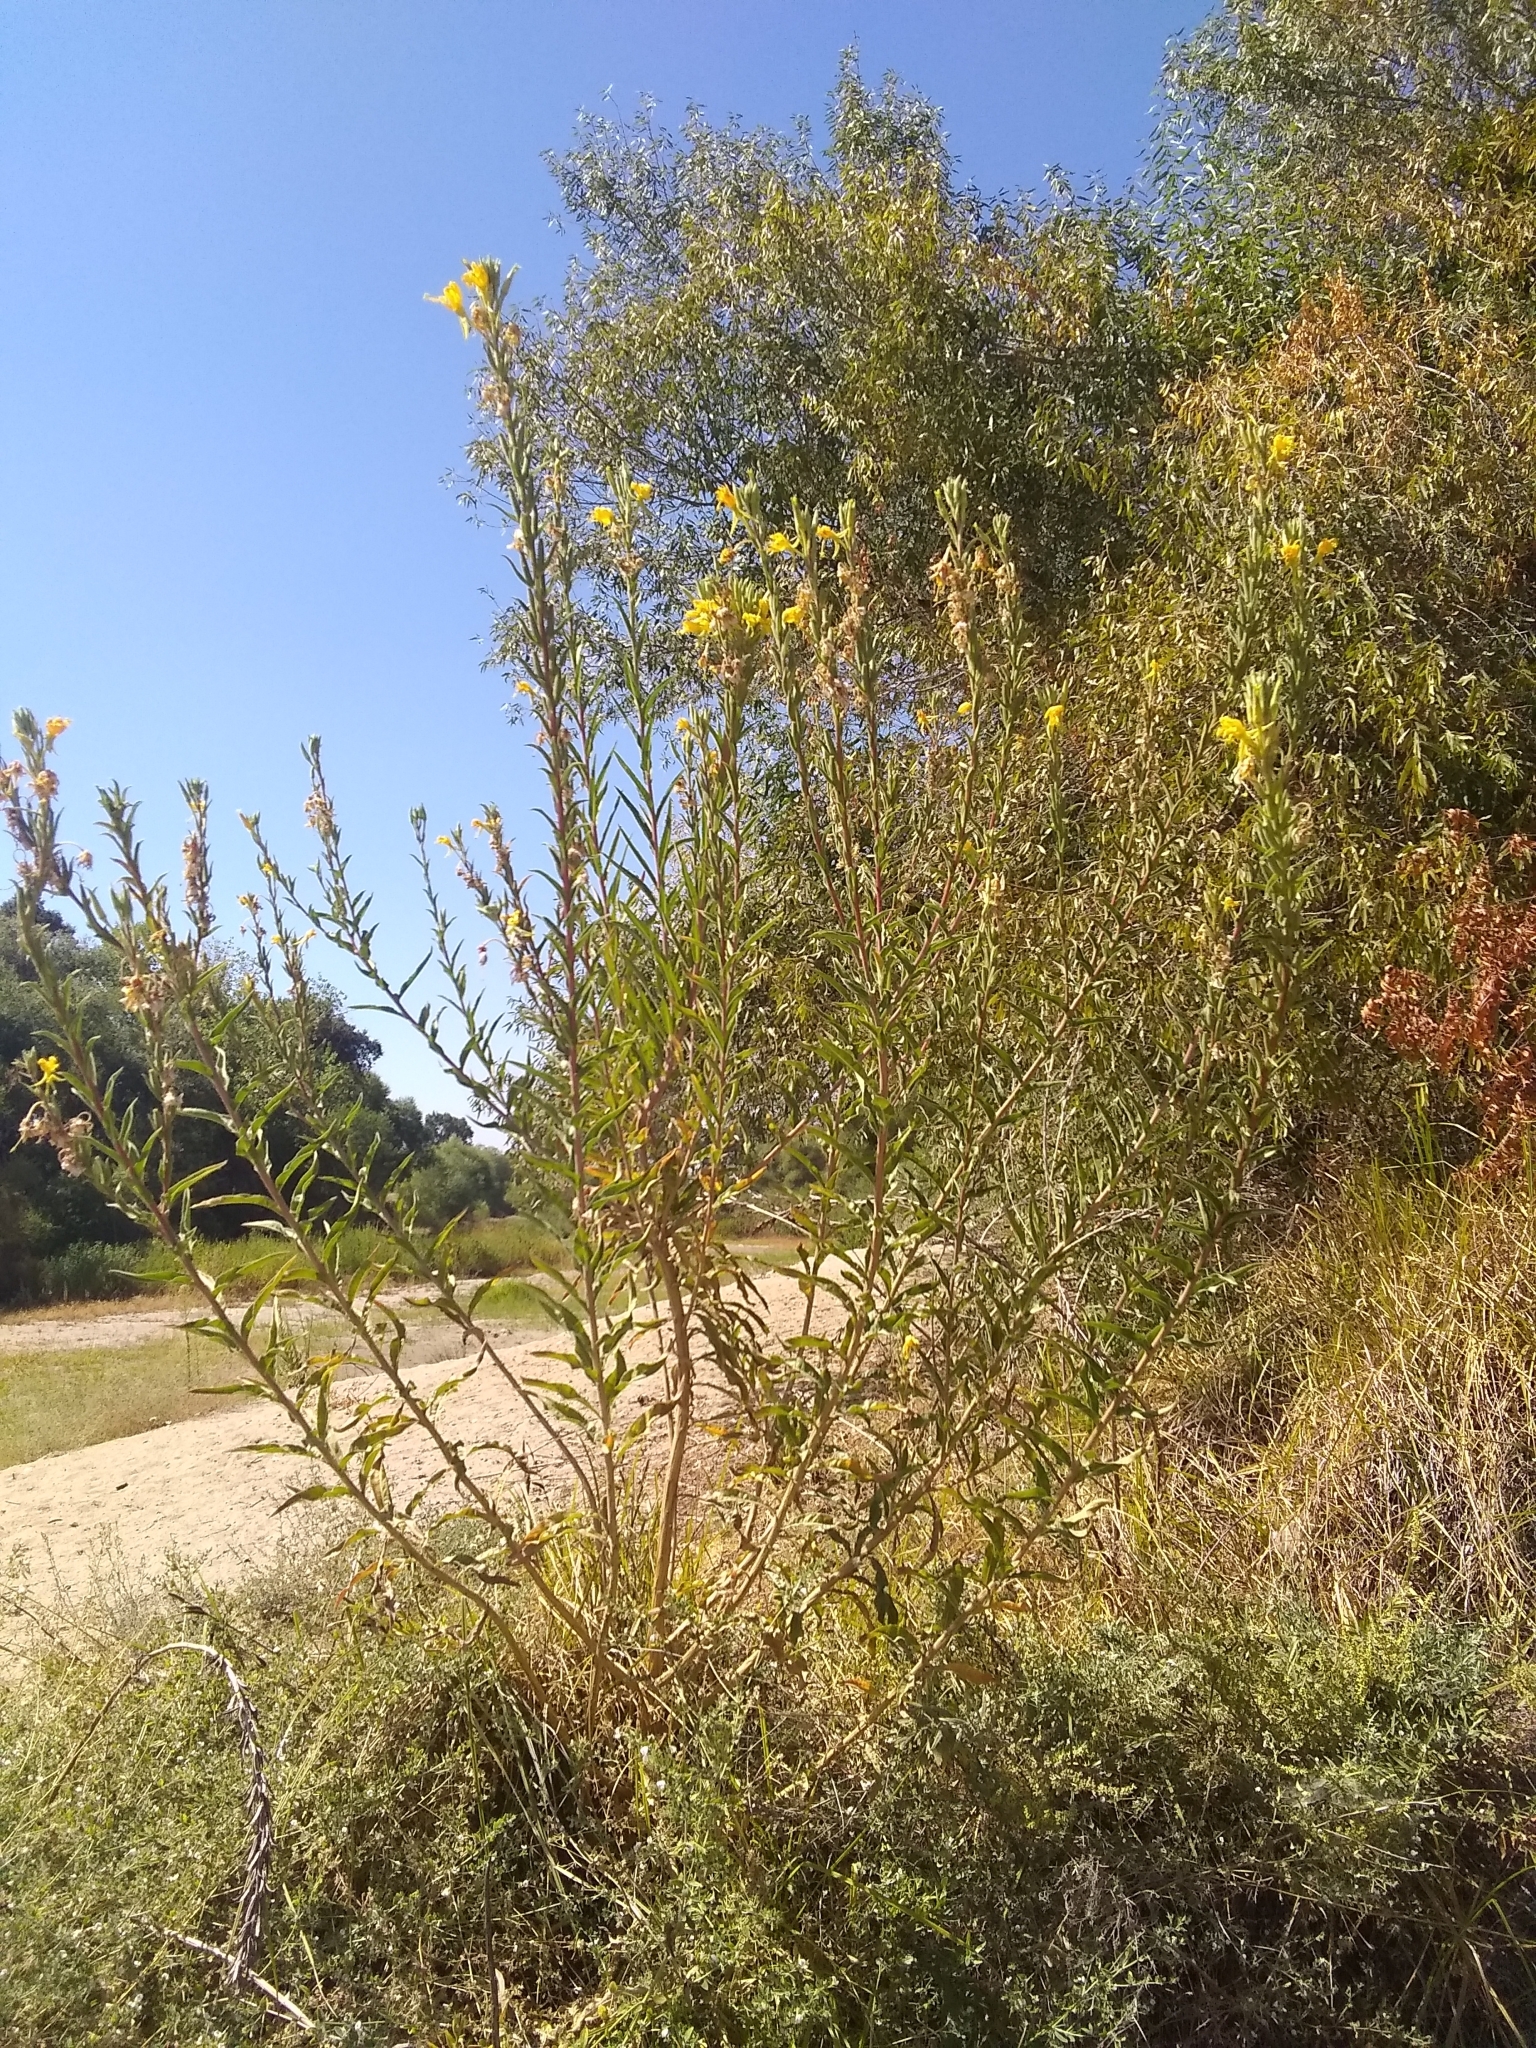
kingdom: Plantae
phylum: Tracheophyta
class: Magnoliopsida
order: Myrtales
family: Onagraceae
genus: Oenothera
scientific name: Oenothera elata
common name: Hooker's evening-primrose
